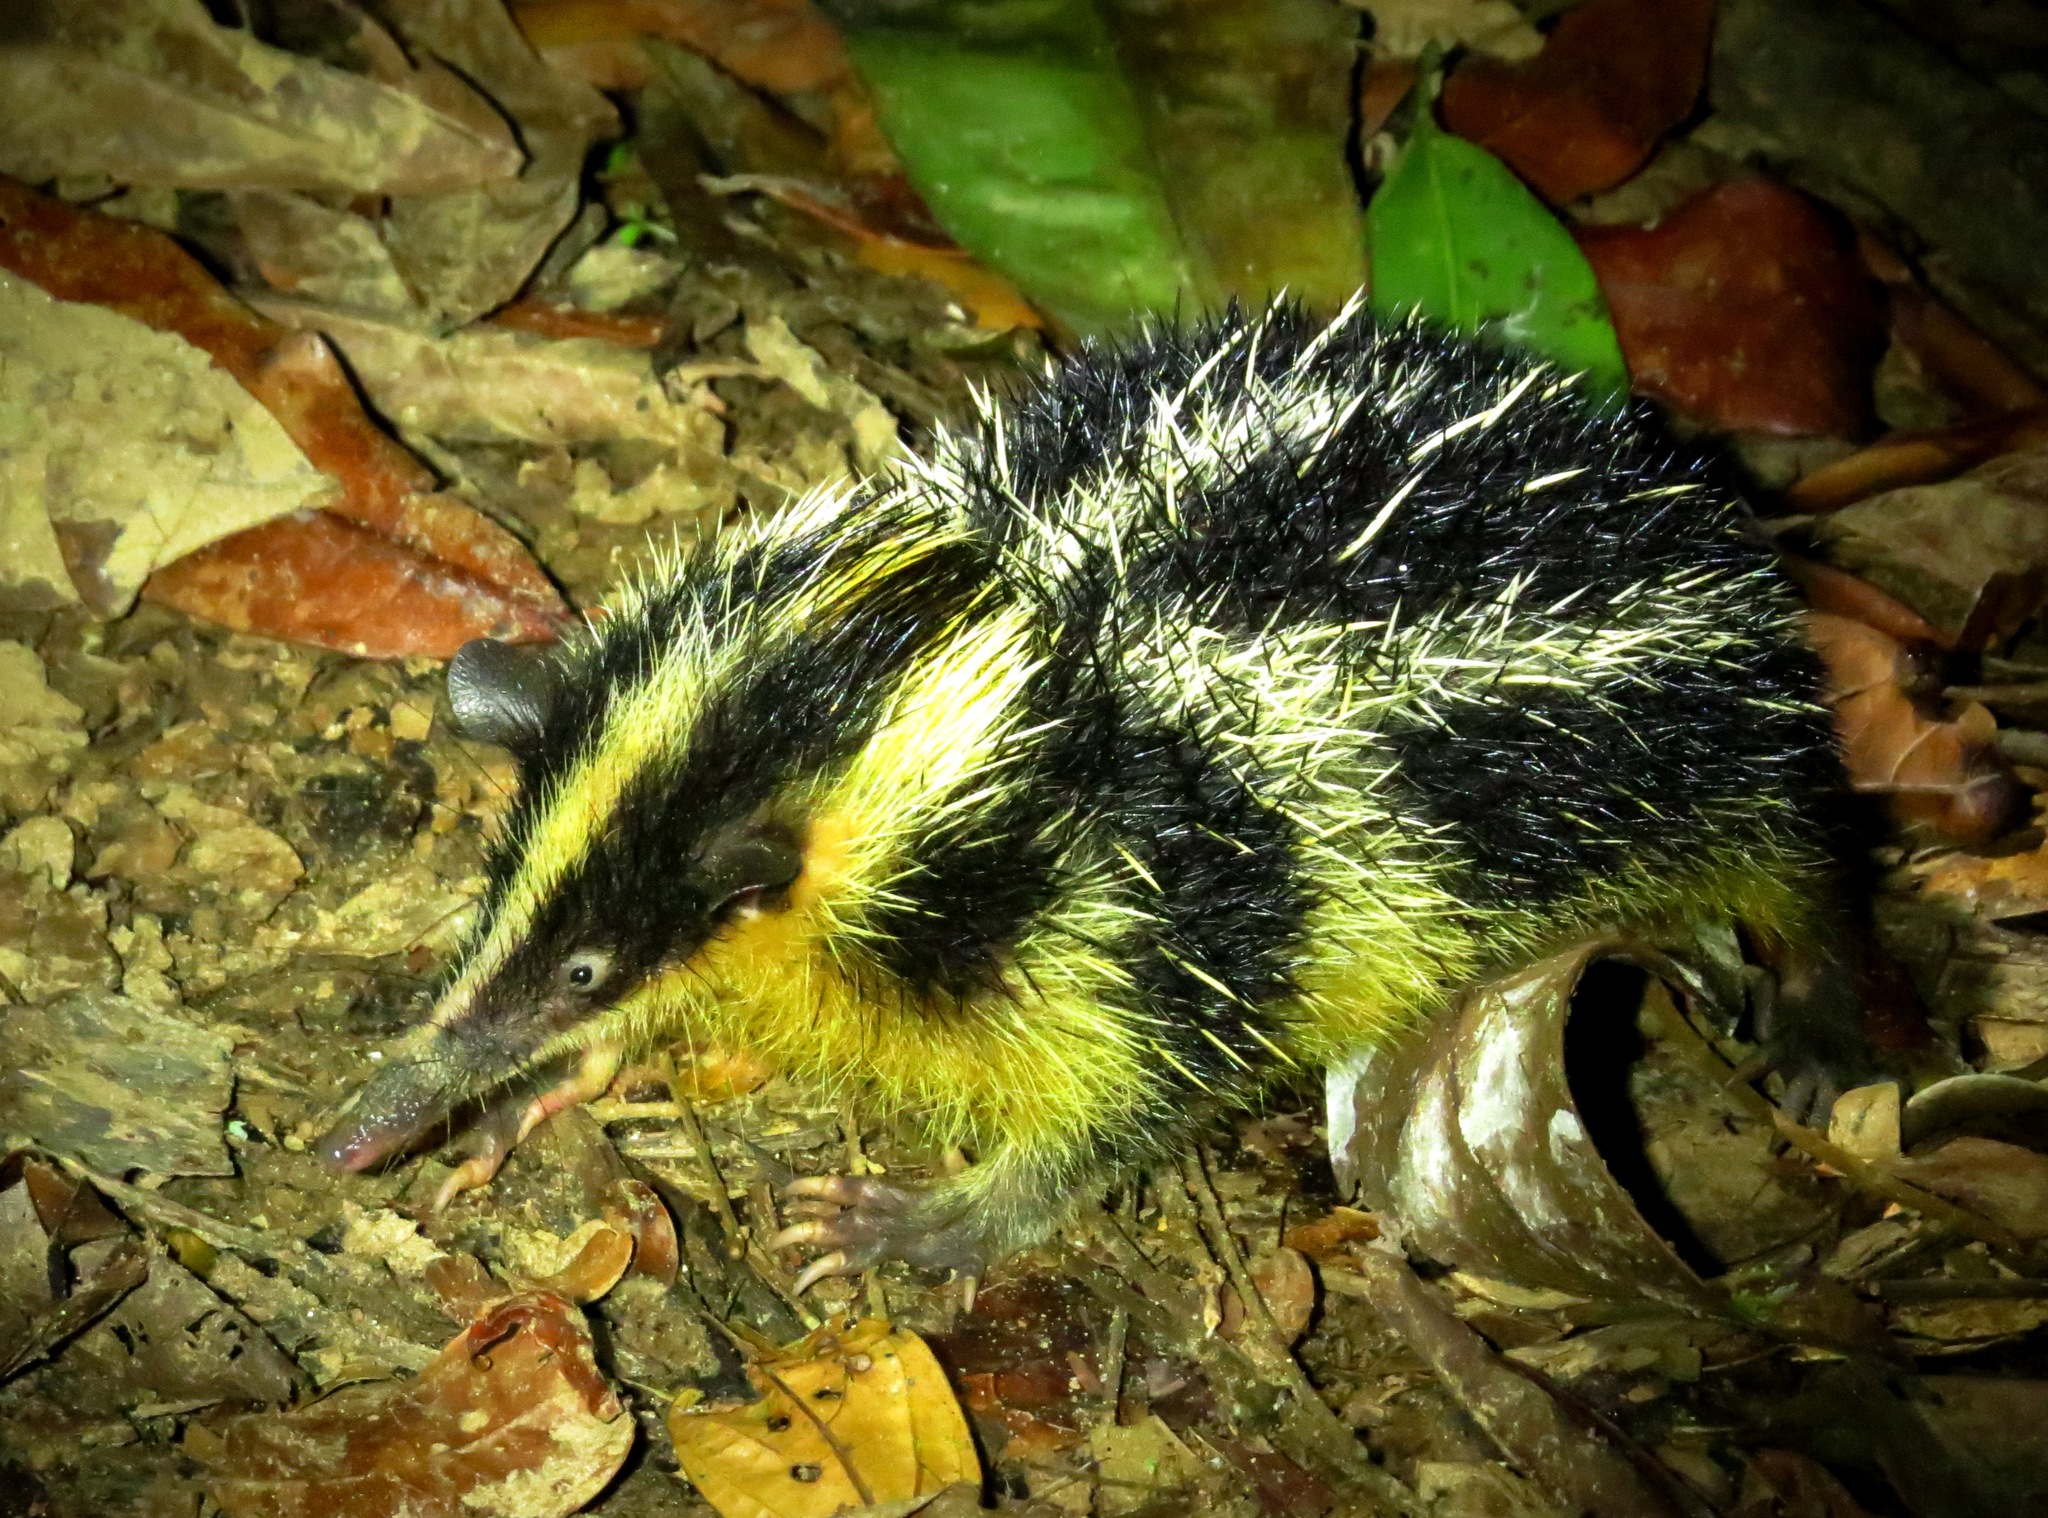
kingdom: Animalia
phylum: Chordata
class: Mammalia
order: Afrosoricida
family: Tenrecidae
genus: Hemicentetes
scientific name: Hemicentetes semispinosus
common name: Lowland streaked tenrec
